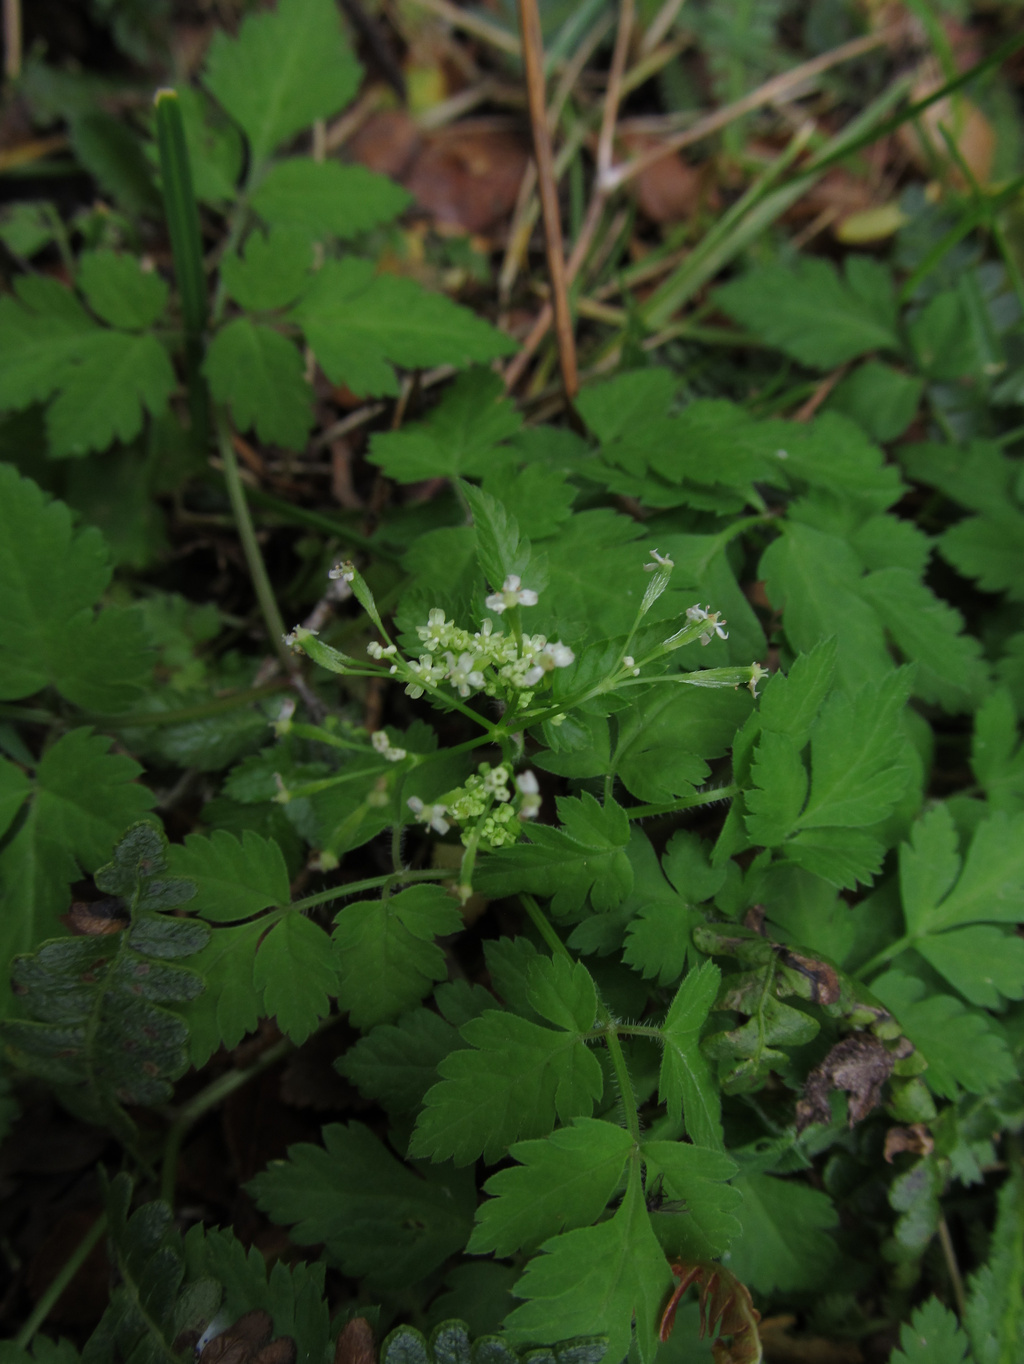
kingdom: Plantae
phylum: Tracheophyta
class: Magnoliopsida
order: Apiales
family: Apiaceae
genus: Osmorhiza
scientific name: Osmorhiza berteroi
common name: Mountain sweet cicely
